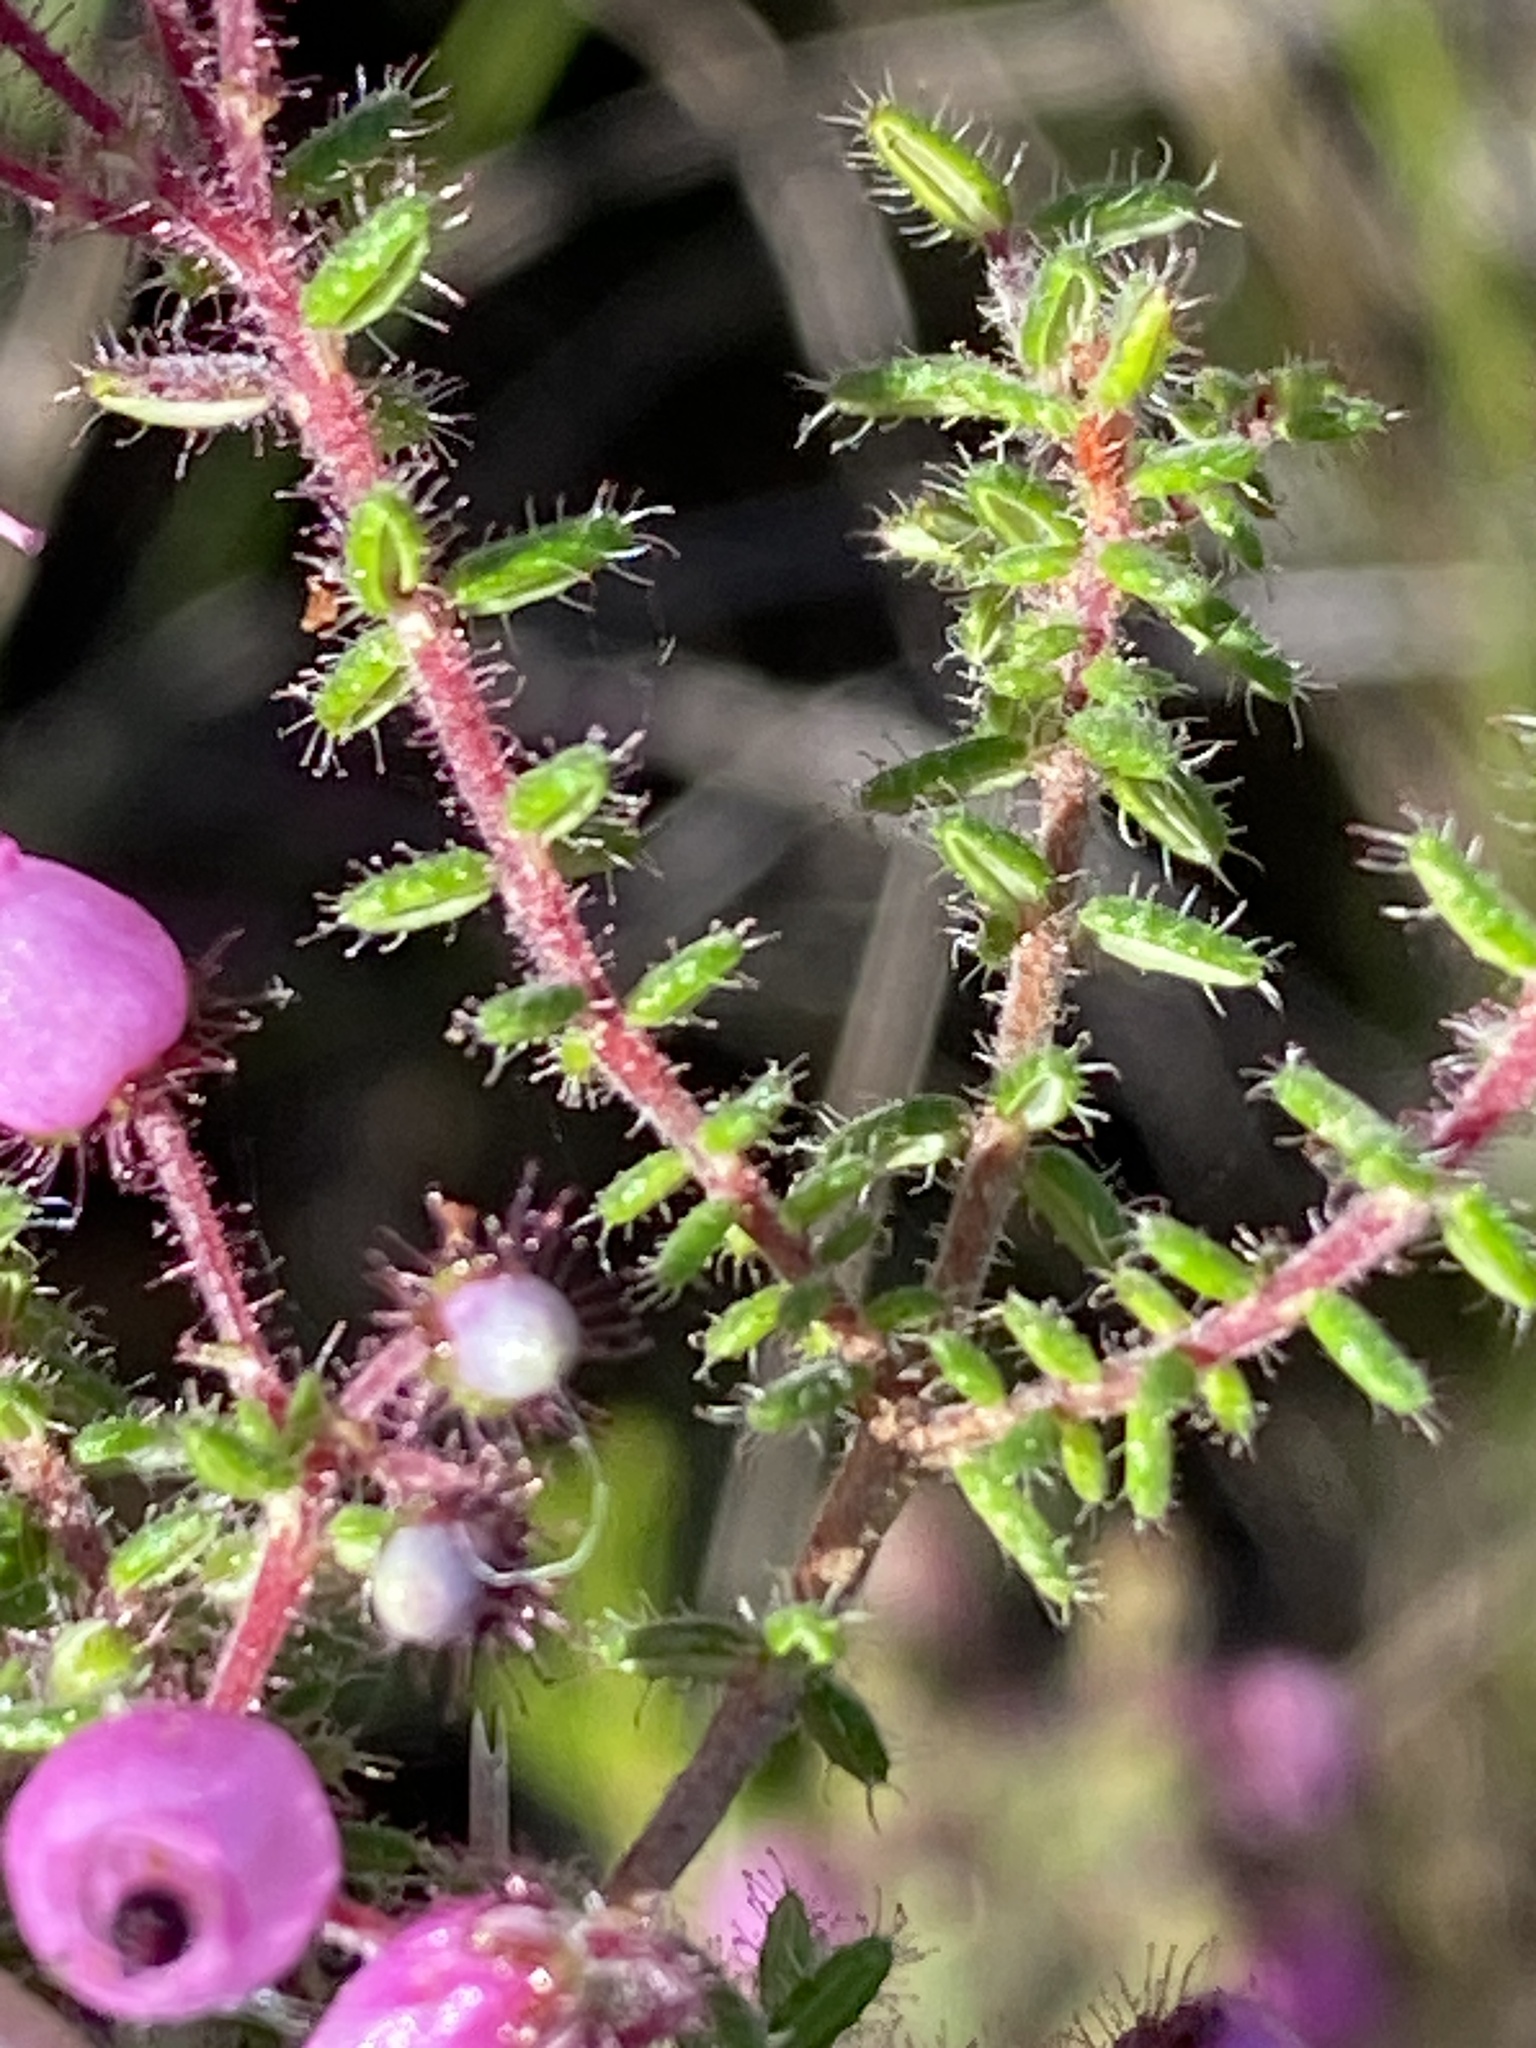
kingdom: Plantae
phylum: Tracheophyta
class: Magnoliopsida
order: Ericales
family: Ericaceae
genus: Erica
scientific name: Erica permutata
